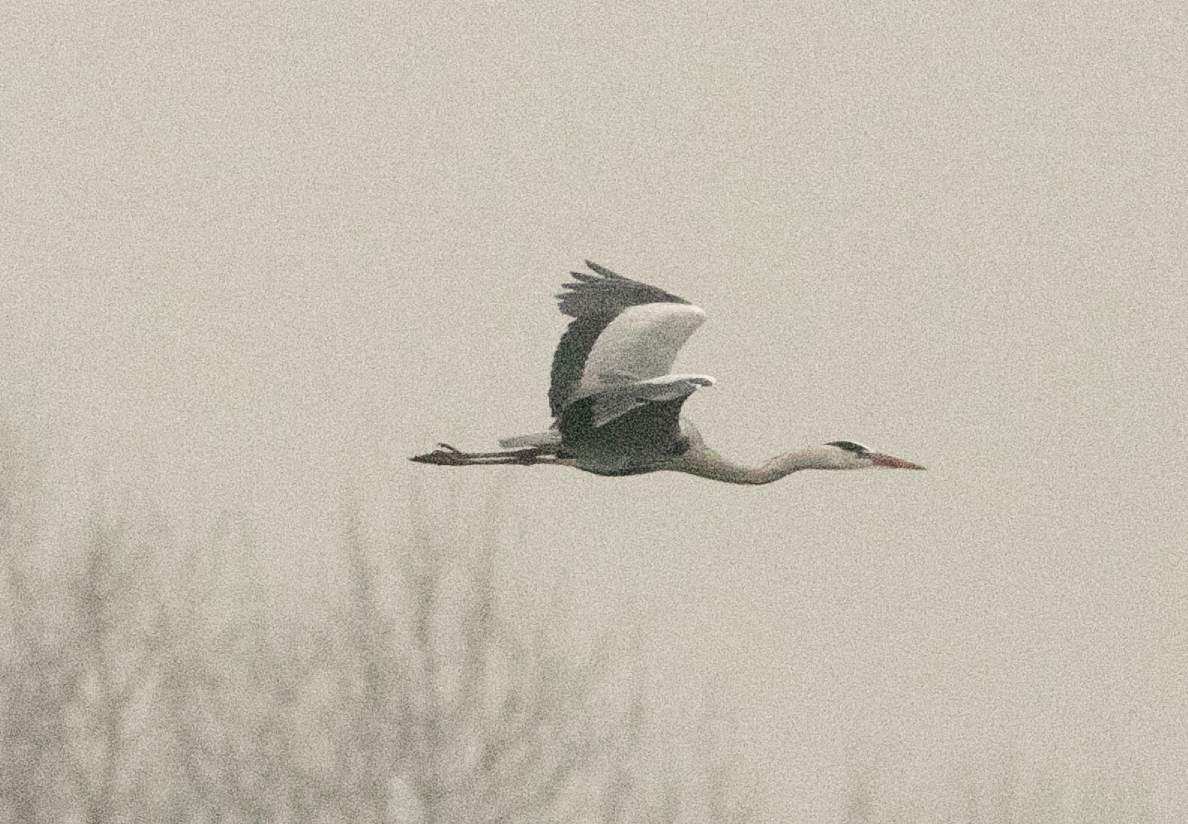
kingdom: Animalia
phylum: Chordata
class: Aves
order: Pelecaniformes
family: Ardeidae
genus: Ardea
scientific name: Ardea cinerea
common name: Grey heron
